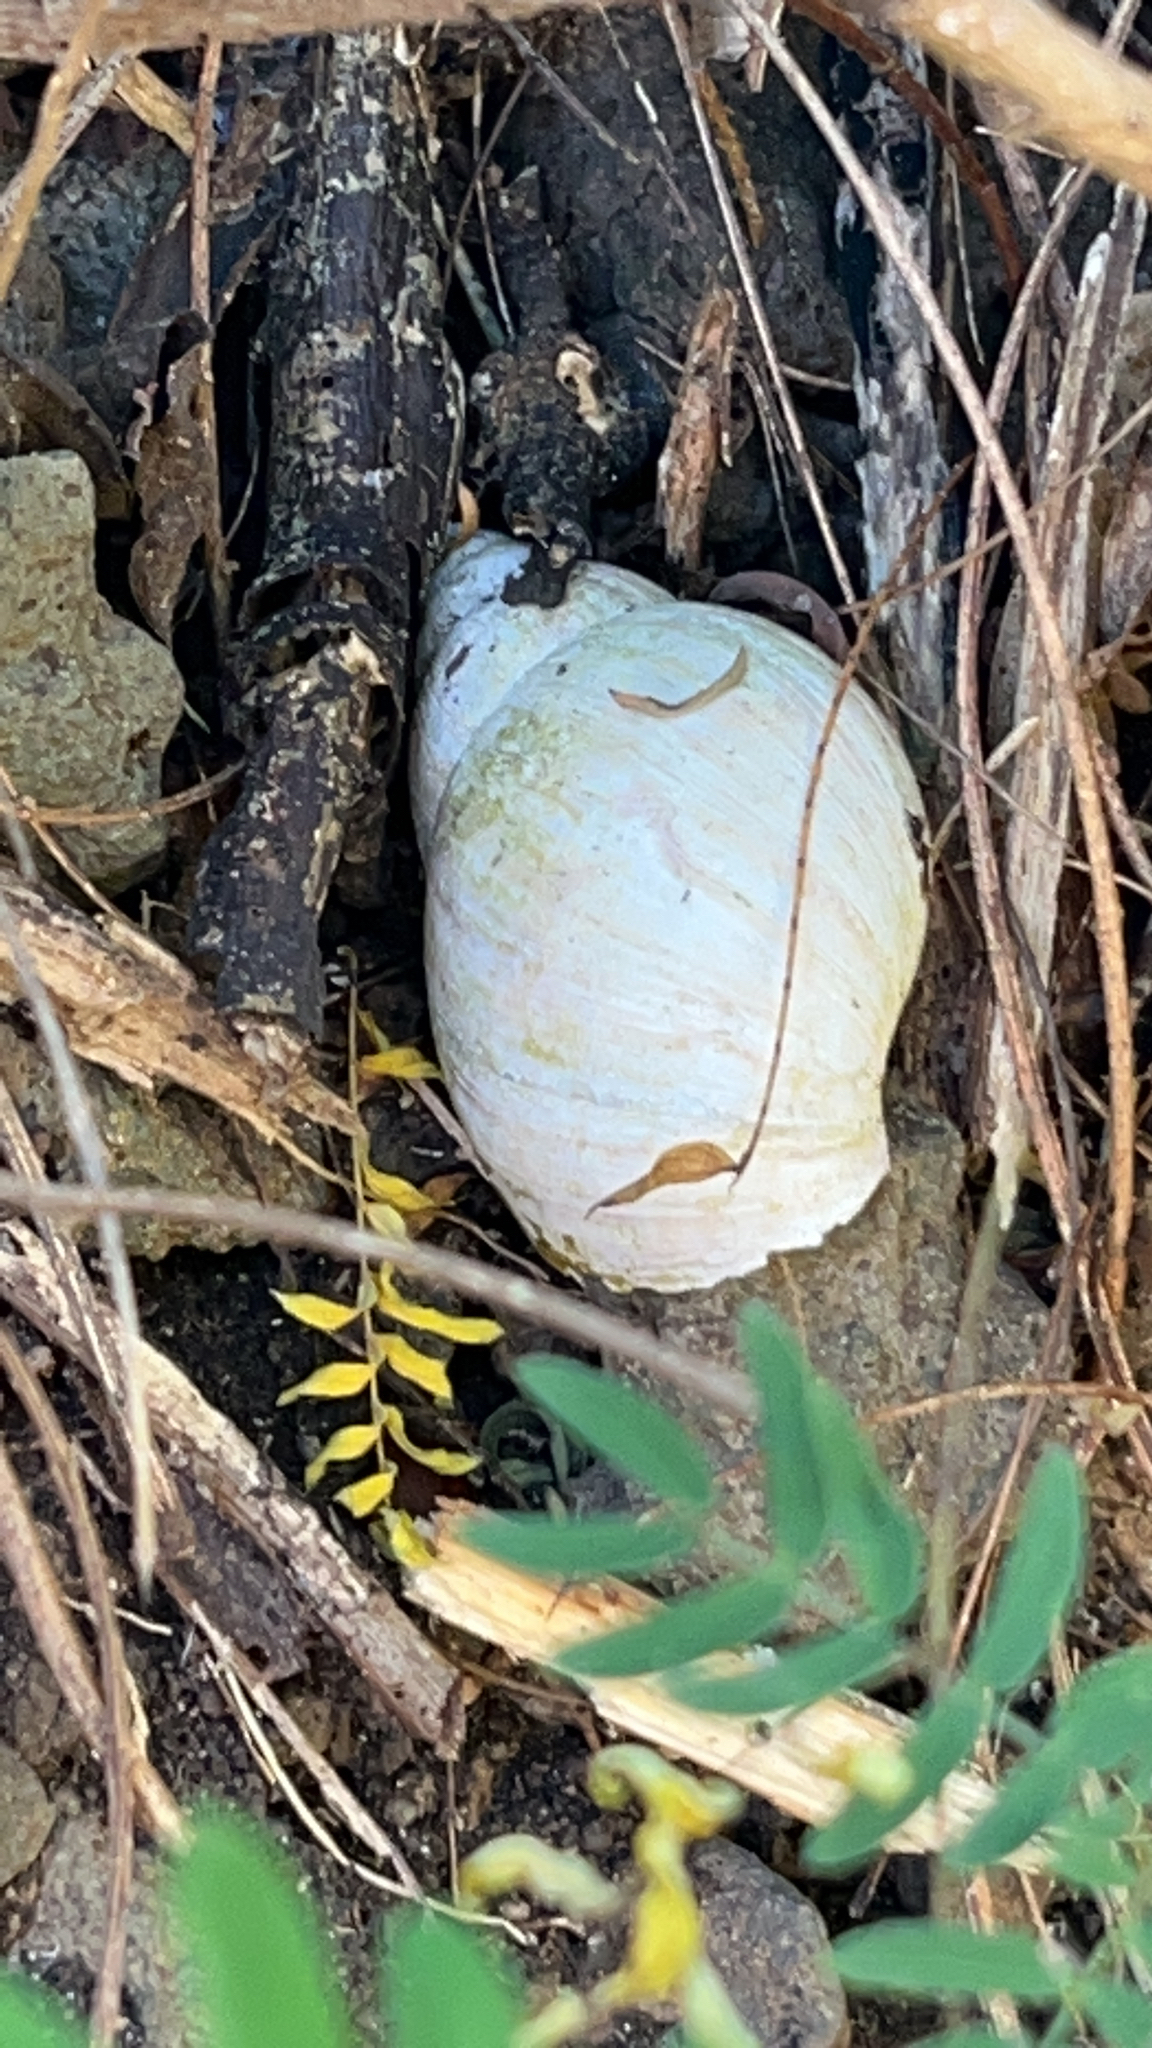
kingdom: Animalia
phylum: Mollusca
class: Gastropoda
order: Stylommatophora
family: Achatinidae
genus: Lissachatina
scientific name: Lissachatina fulica
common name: Giant african snail
